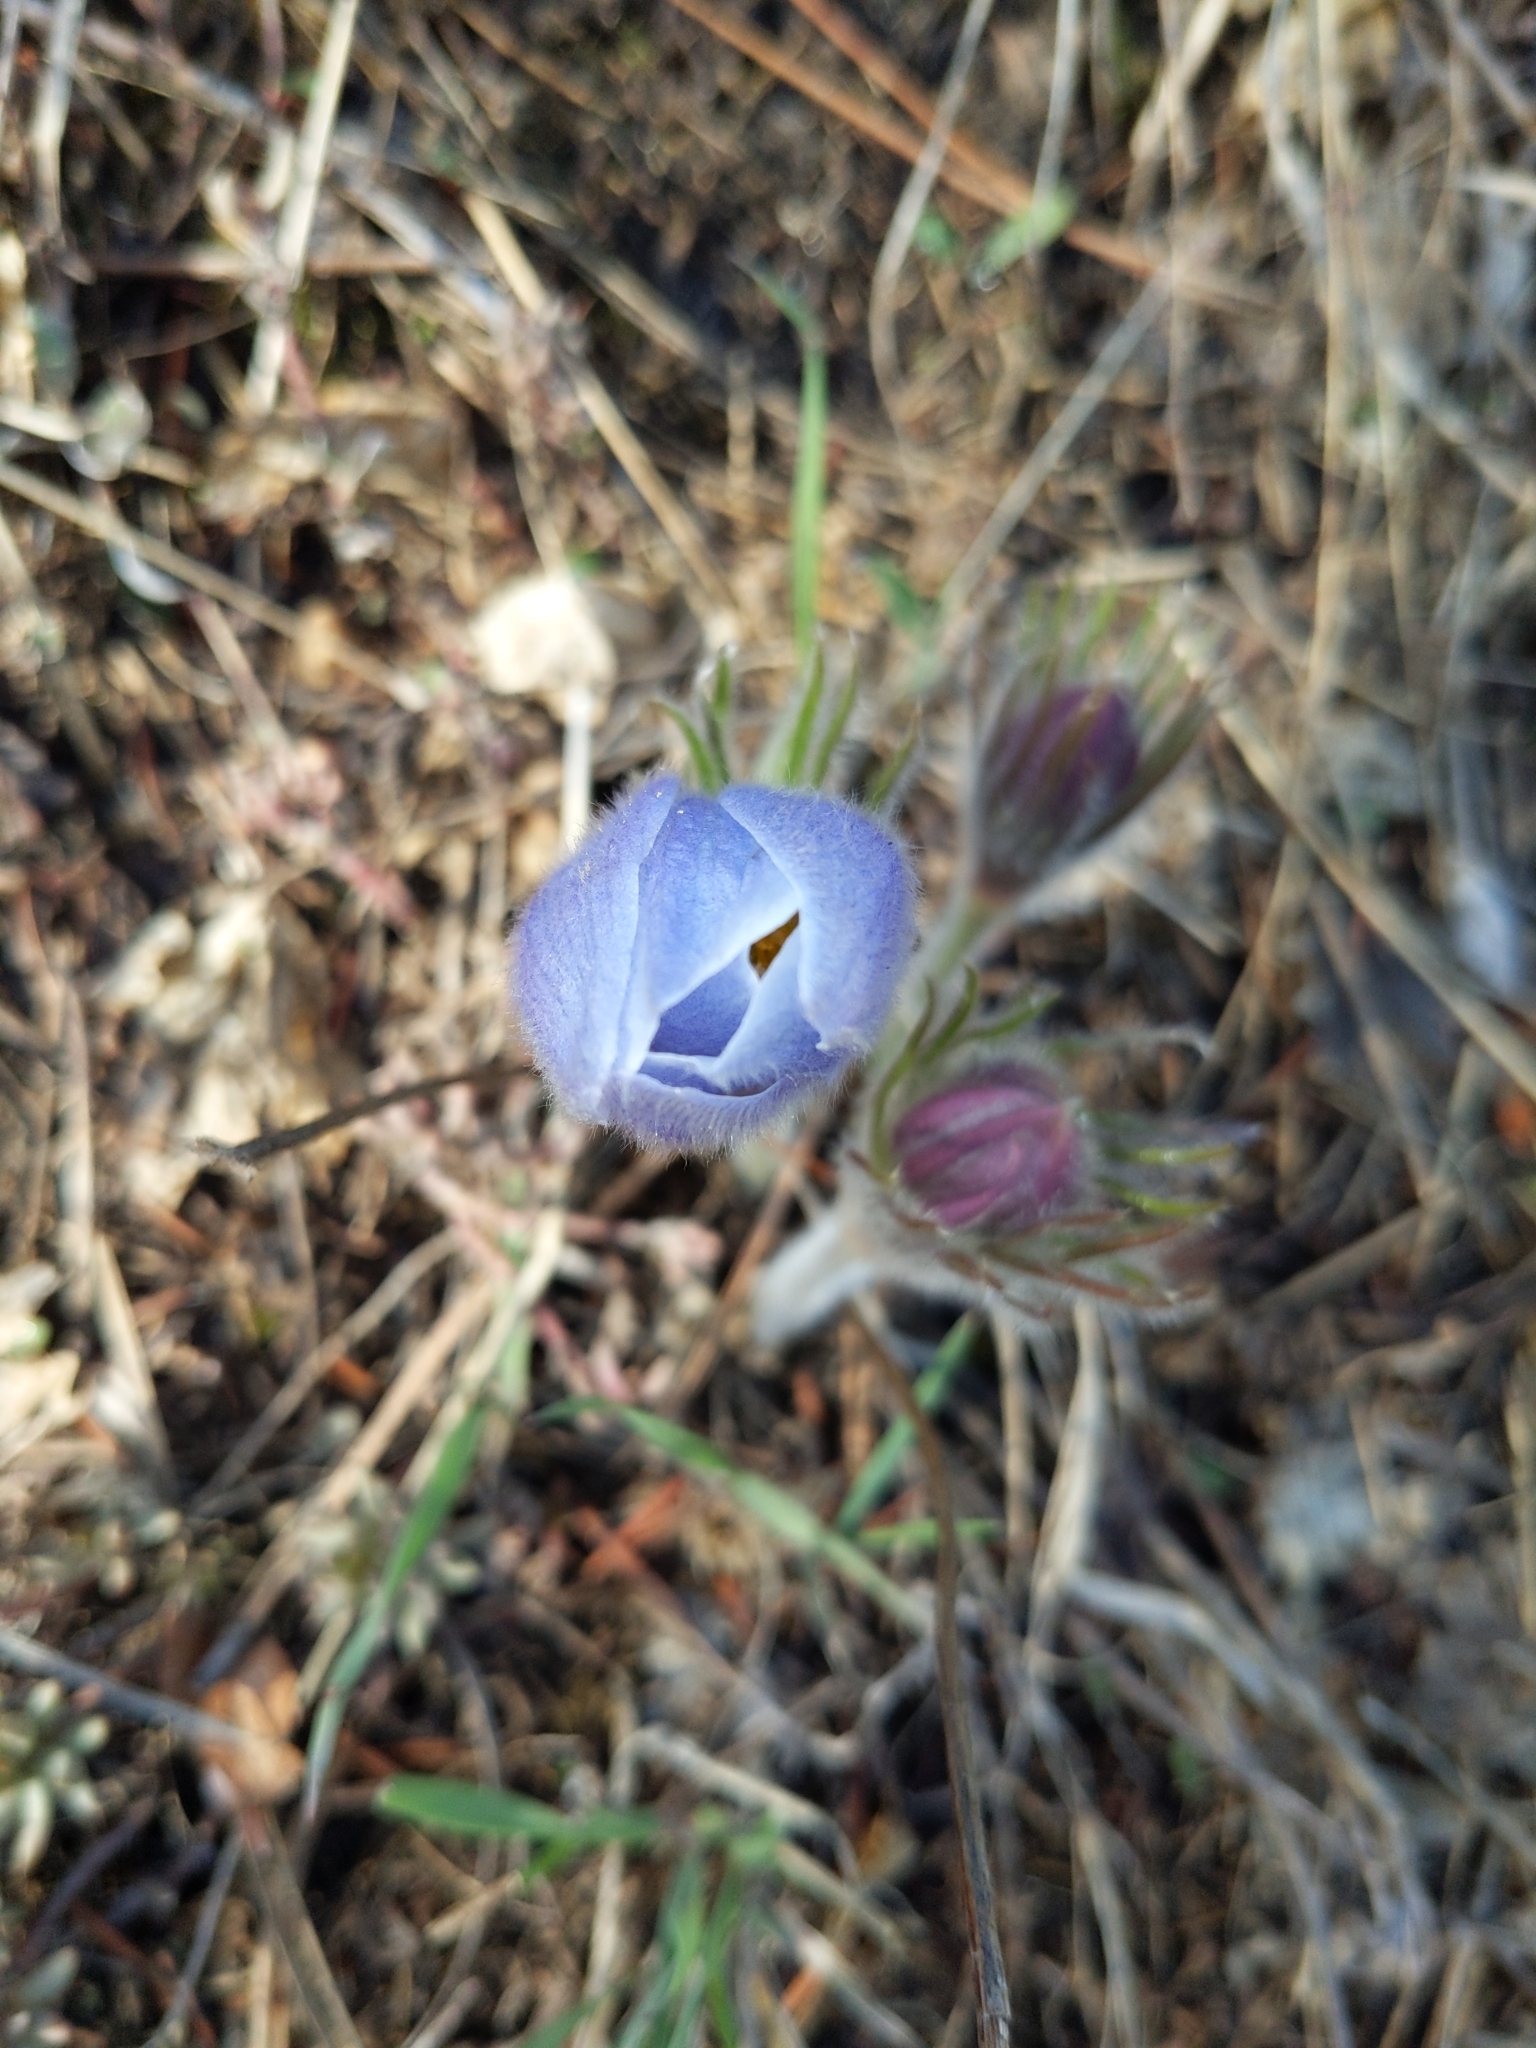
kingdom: Plantae
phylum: Tracheophyta
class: Magnoliopsida
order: Ranunculales
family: Ranunculaceae
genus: Pulsatilla
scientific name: Pulsatilla nuttalliana
